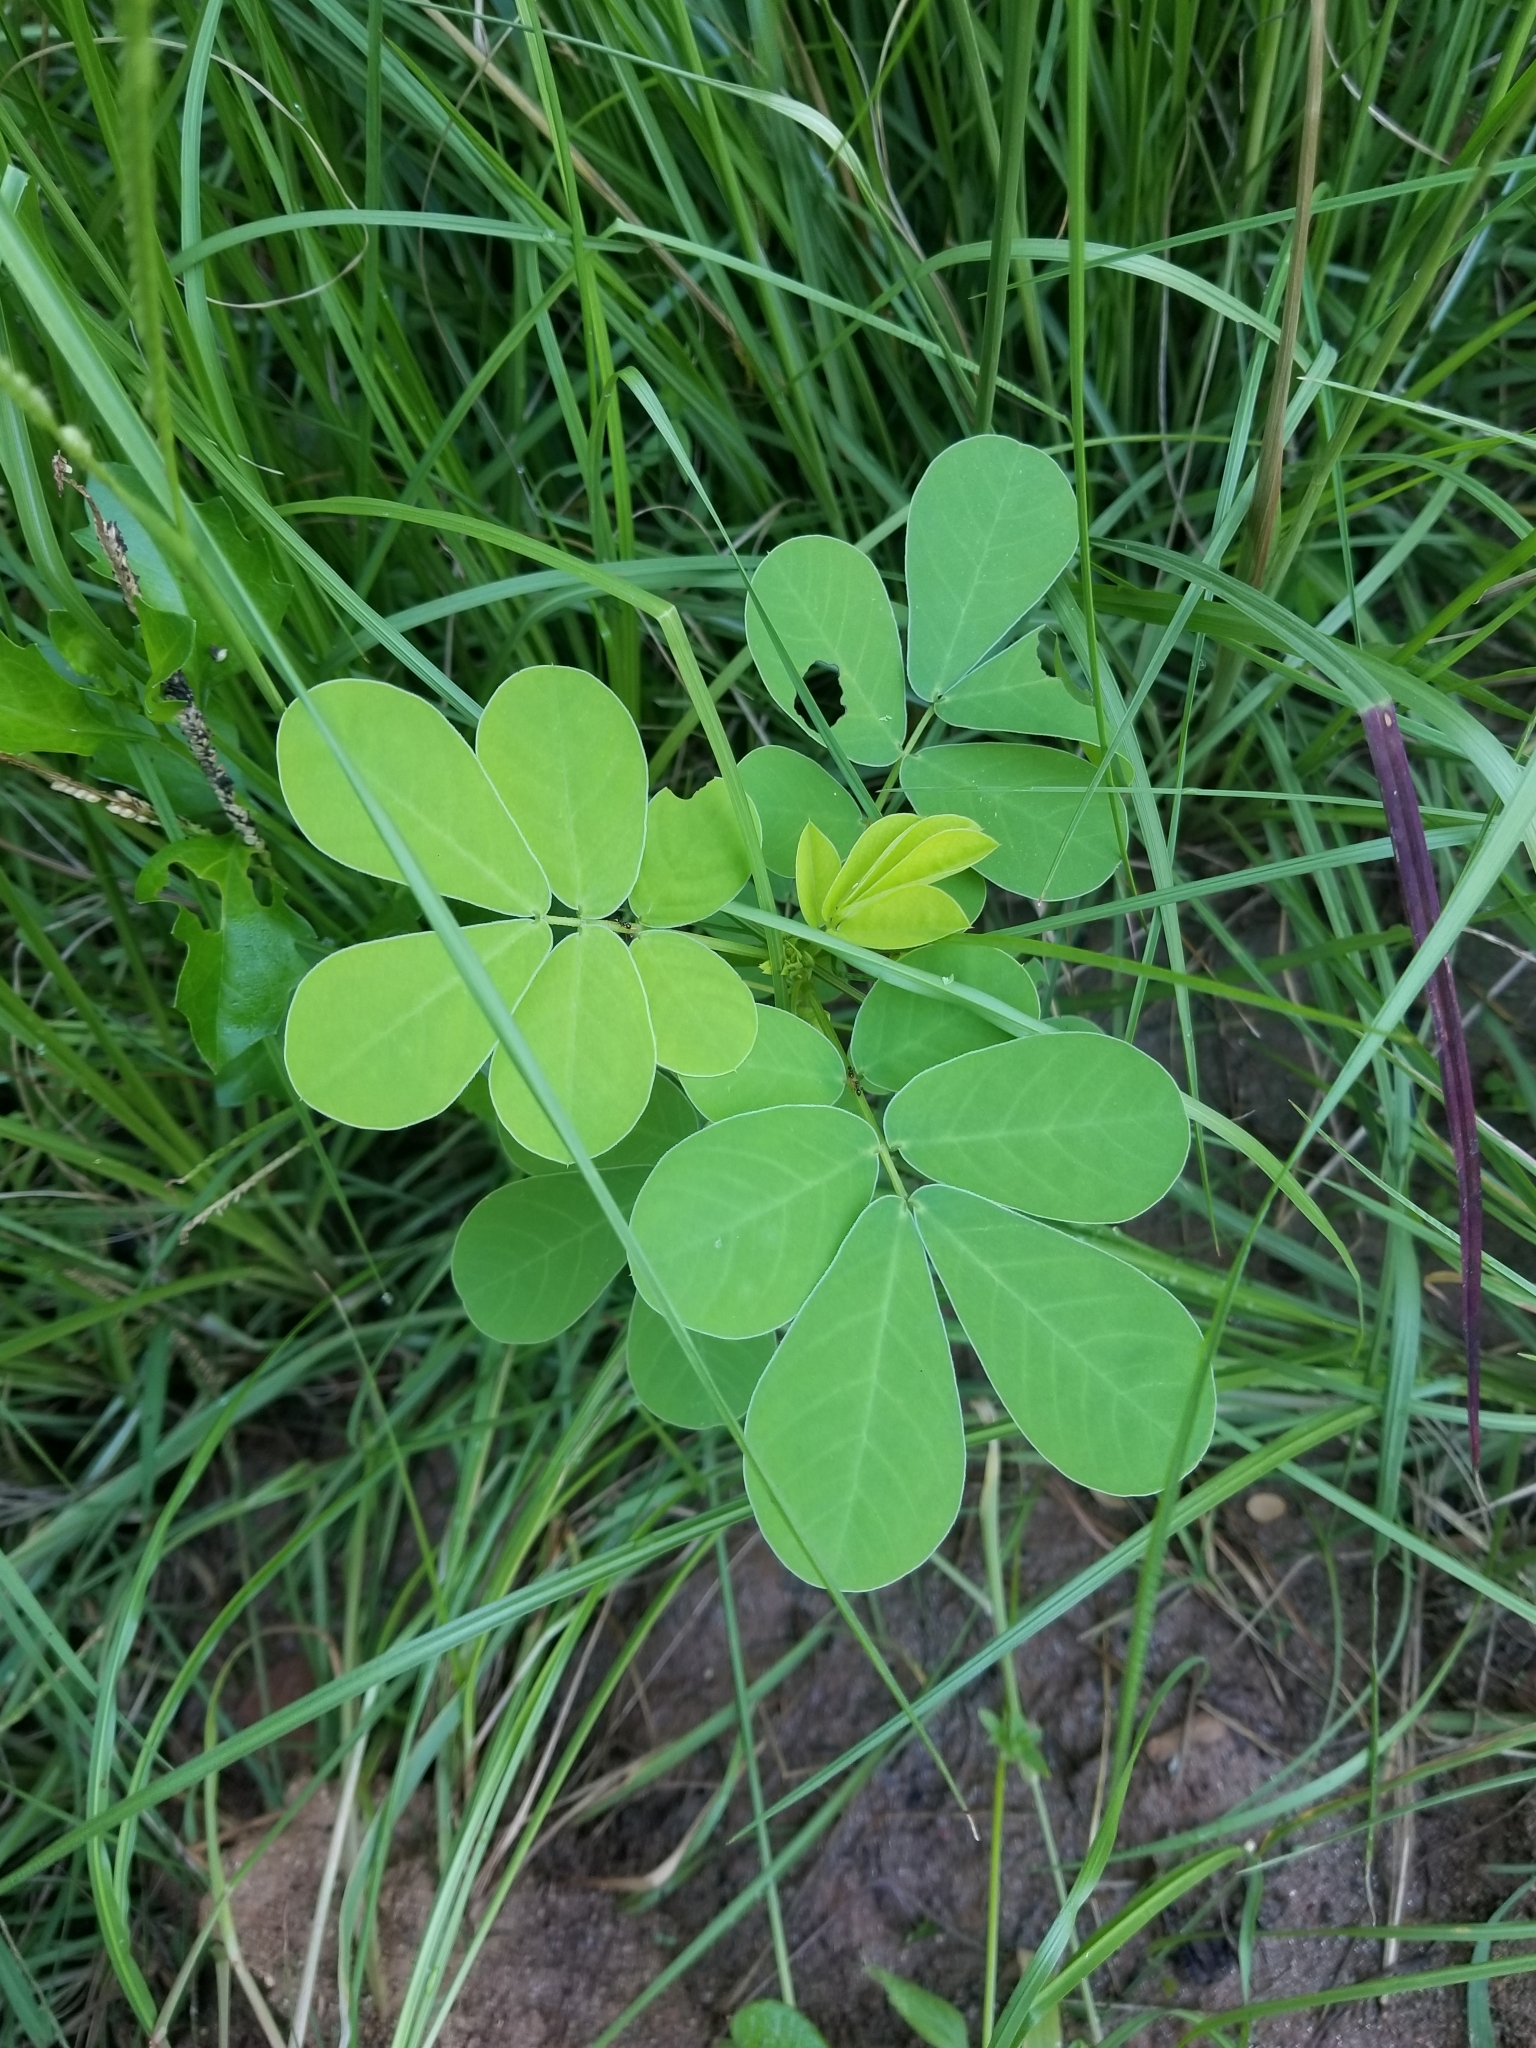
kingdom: Plantae
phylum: Tracheophyta
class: Magnoliopsida
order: Fabales
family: Fabaceae
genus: Senna
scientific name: Senna obtusifolia
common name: Java-bean
